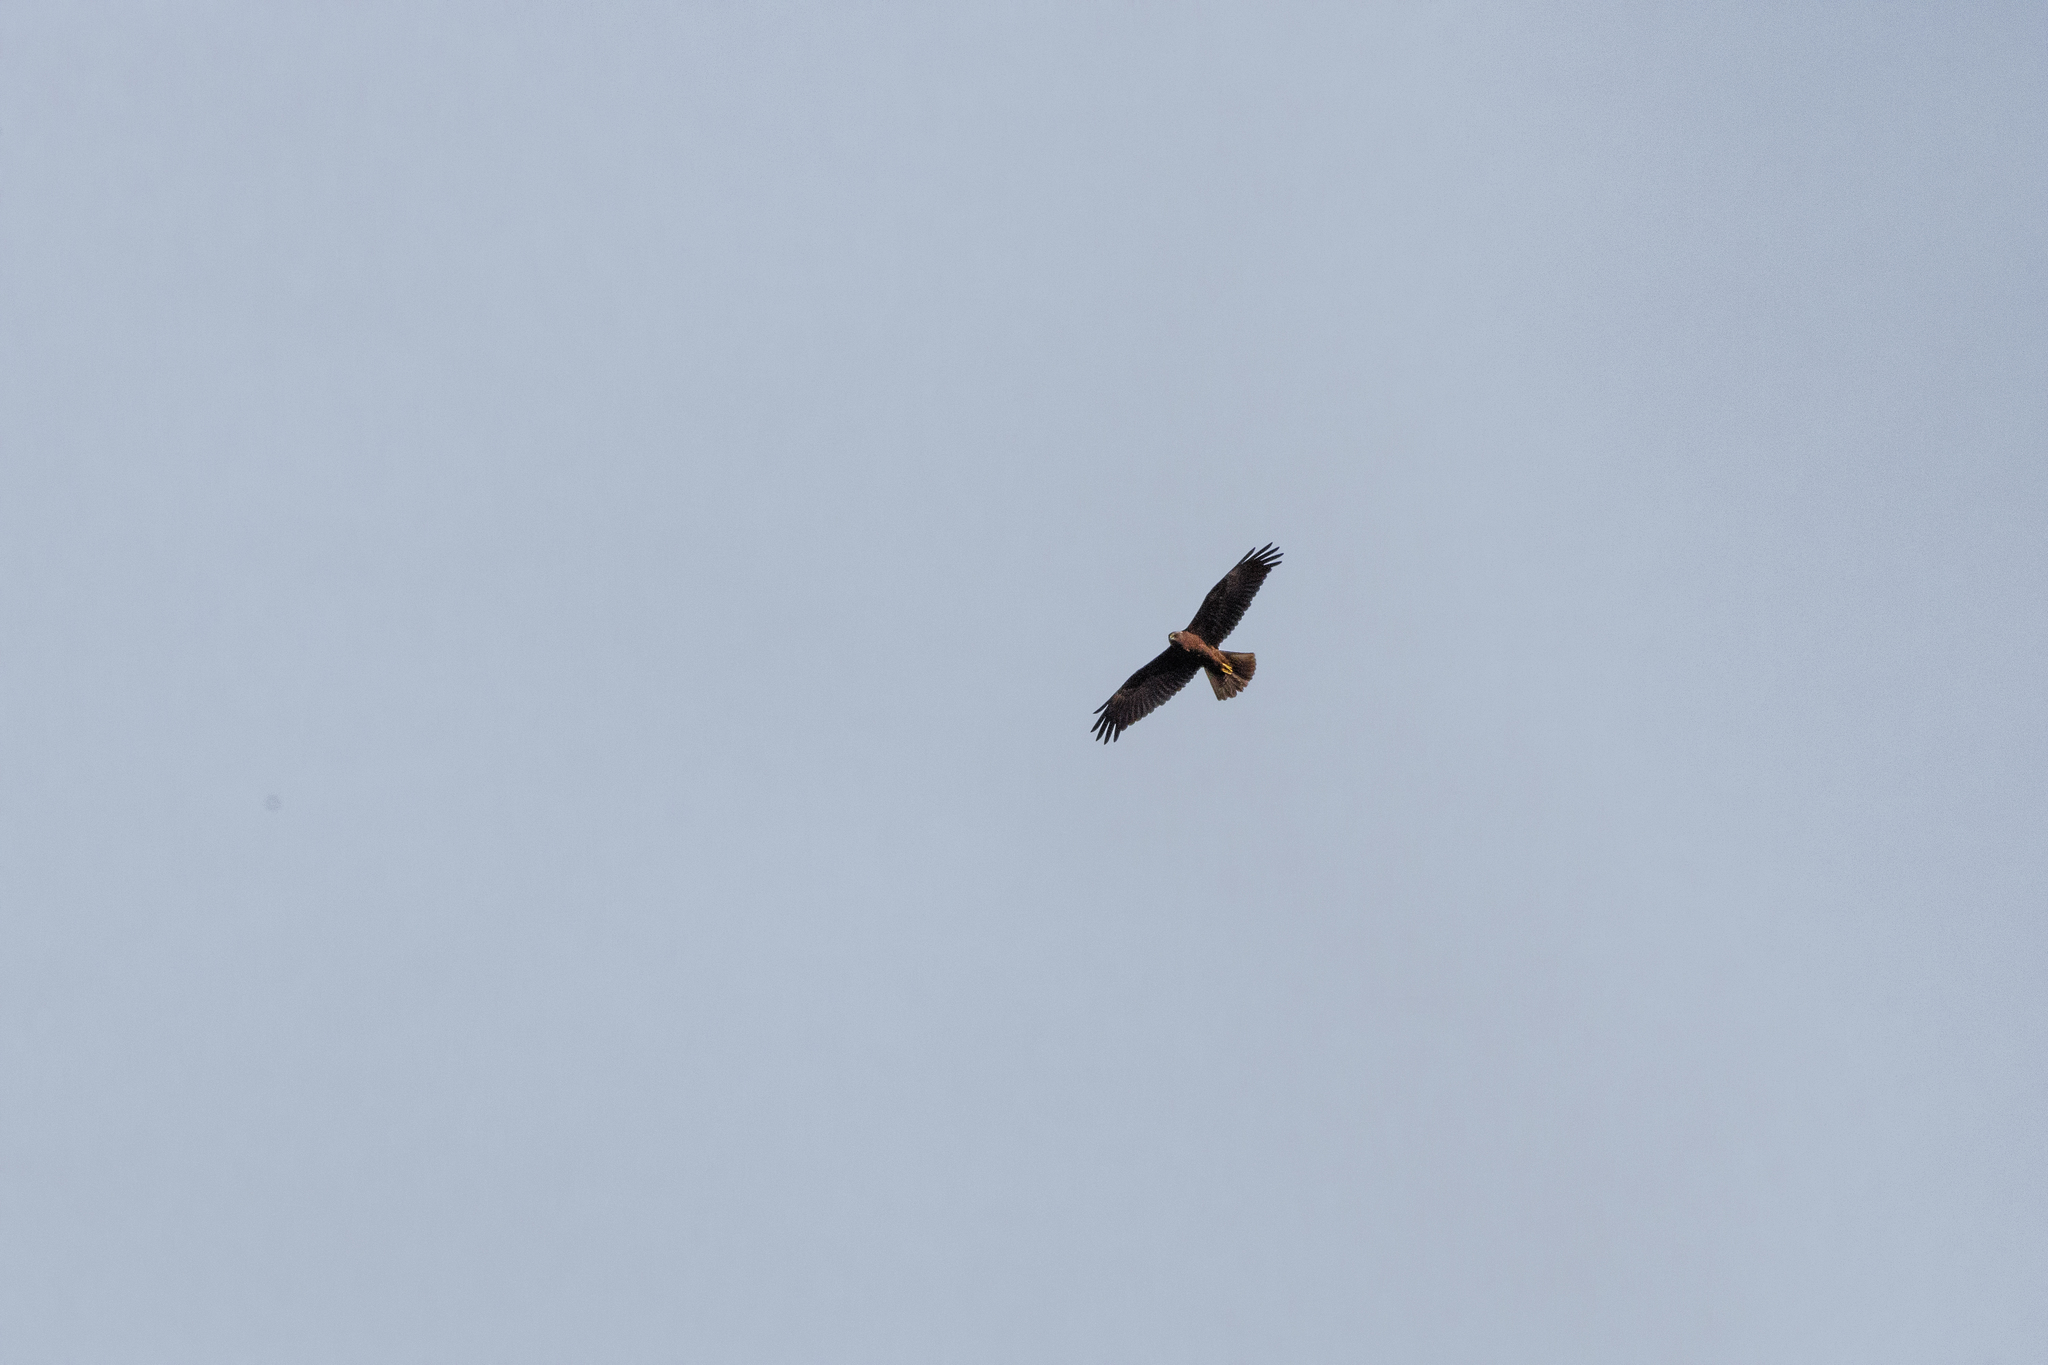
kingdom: Animalia
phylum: Chordata
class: Aves
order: Accipitriformes
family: Accipitridae
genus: Circus
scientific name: Circus aeruginosus
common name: Western marsh harrier
